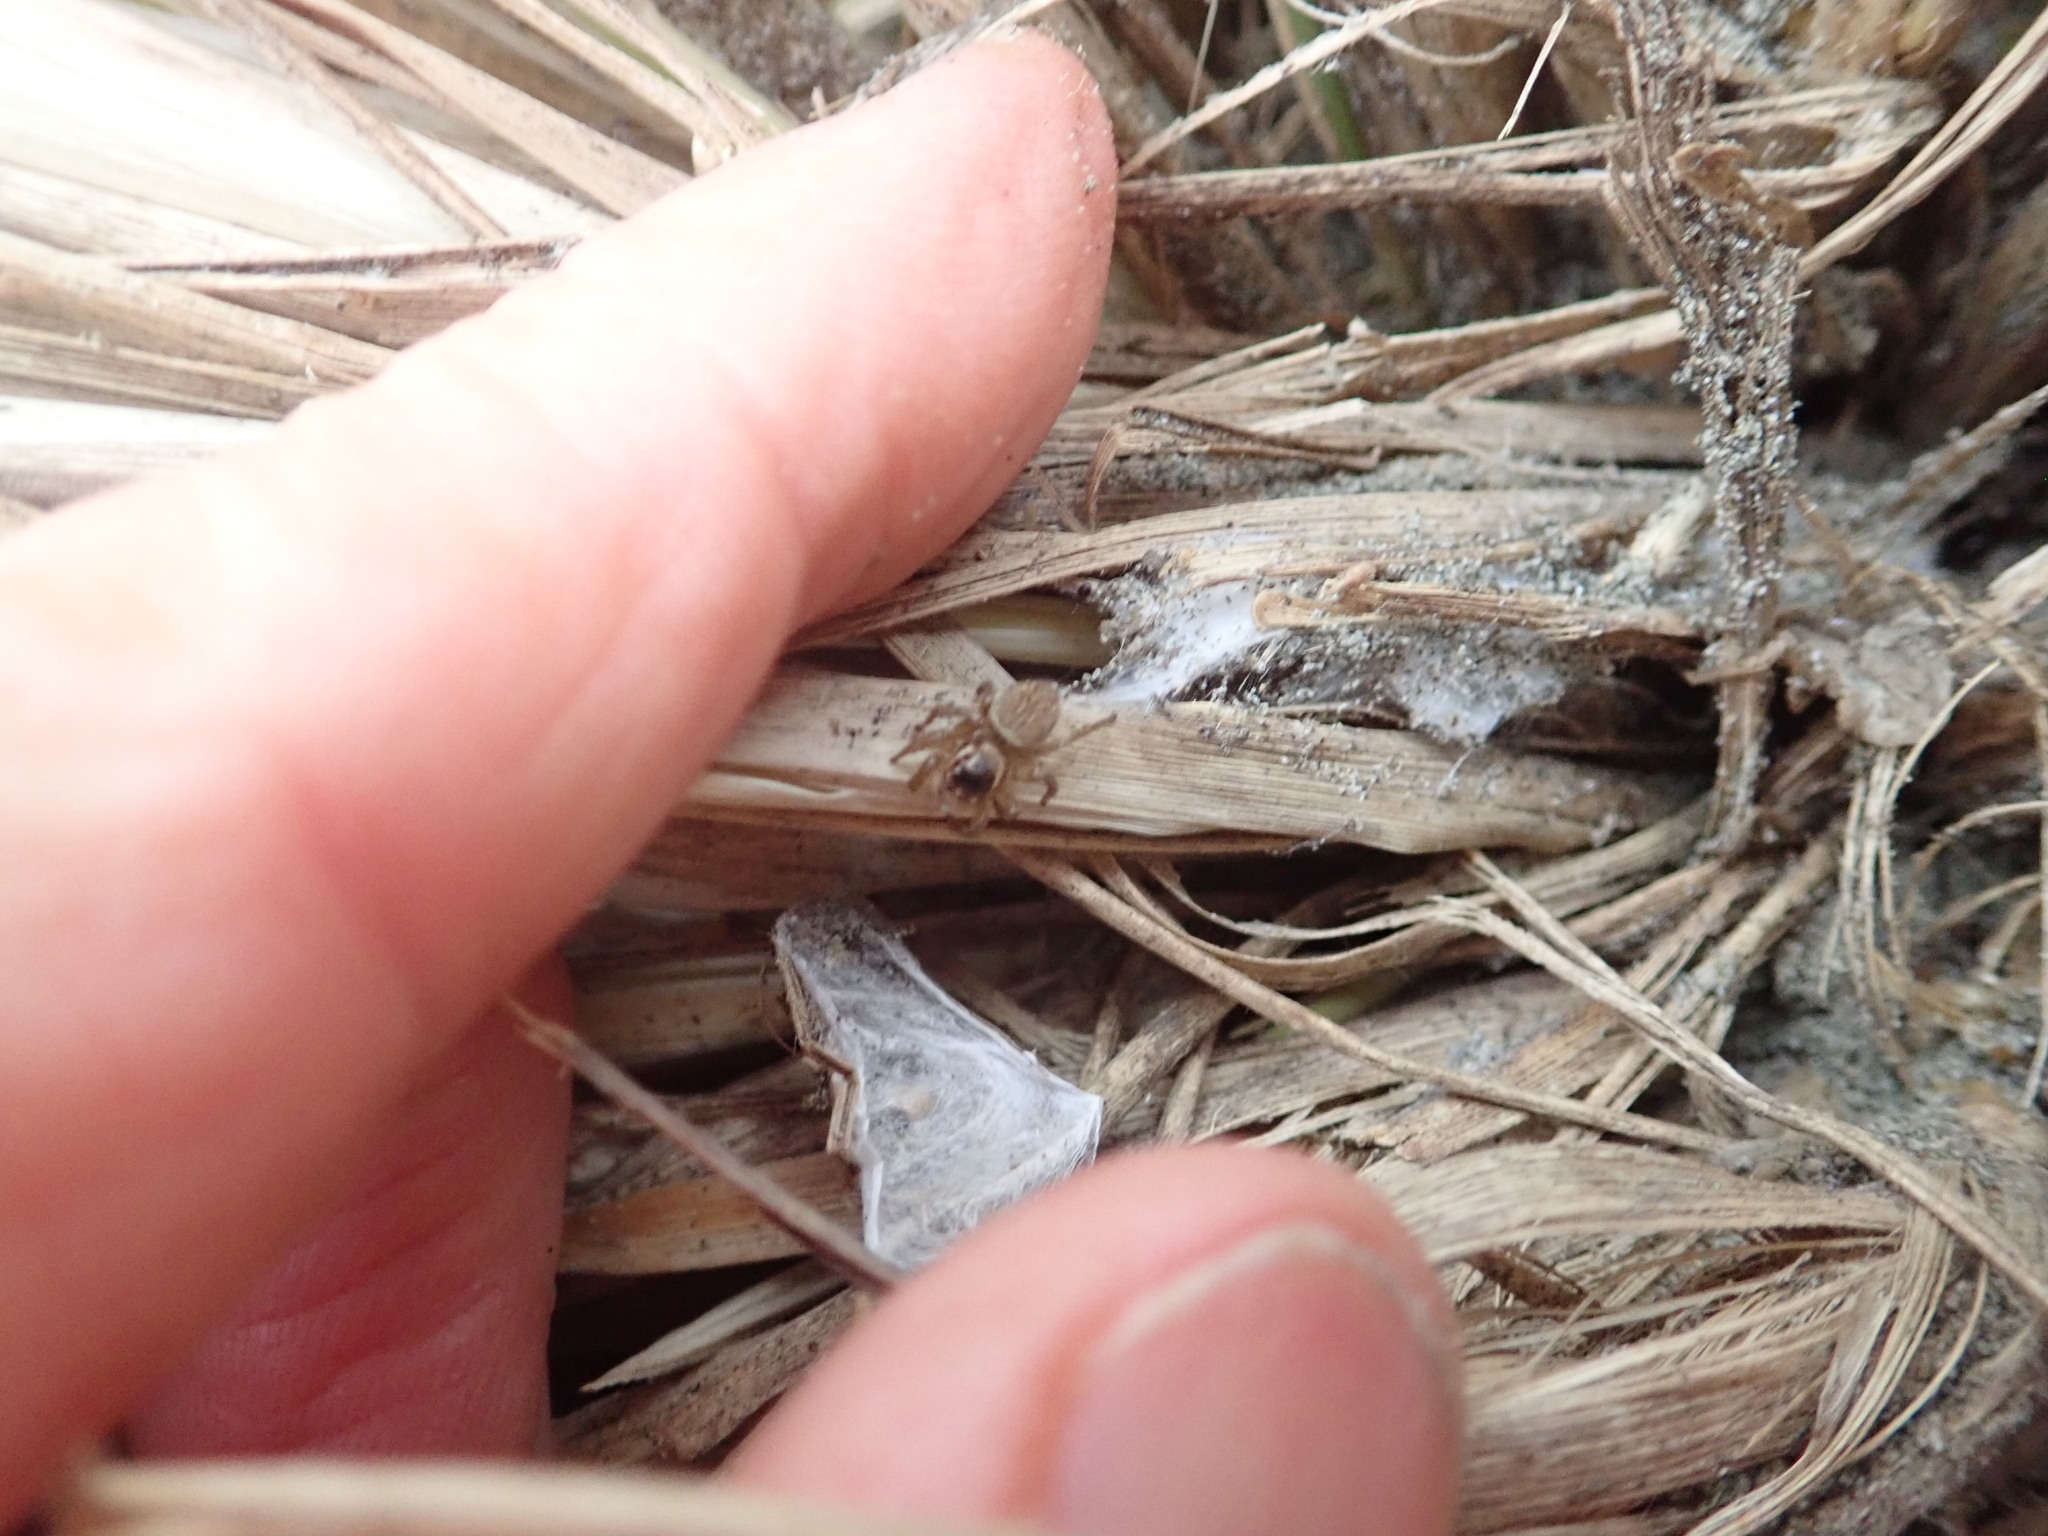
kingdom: Animalia
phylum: Arthropoda
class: Arachnida
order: Araneae
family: Salticidae
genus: Maratus
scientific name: Maratus griseus
